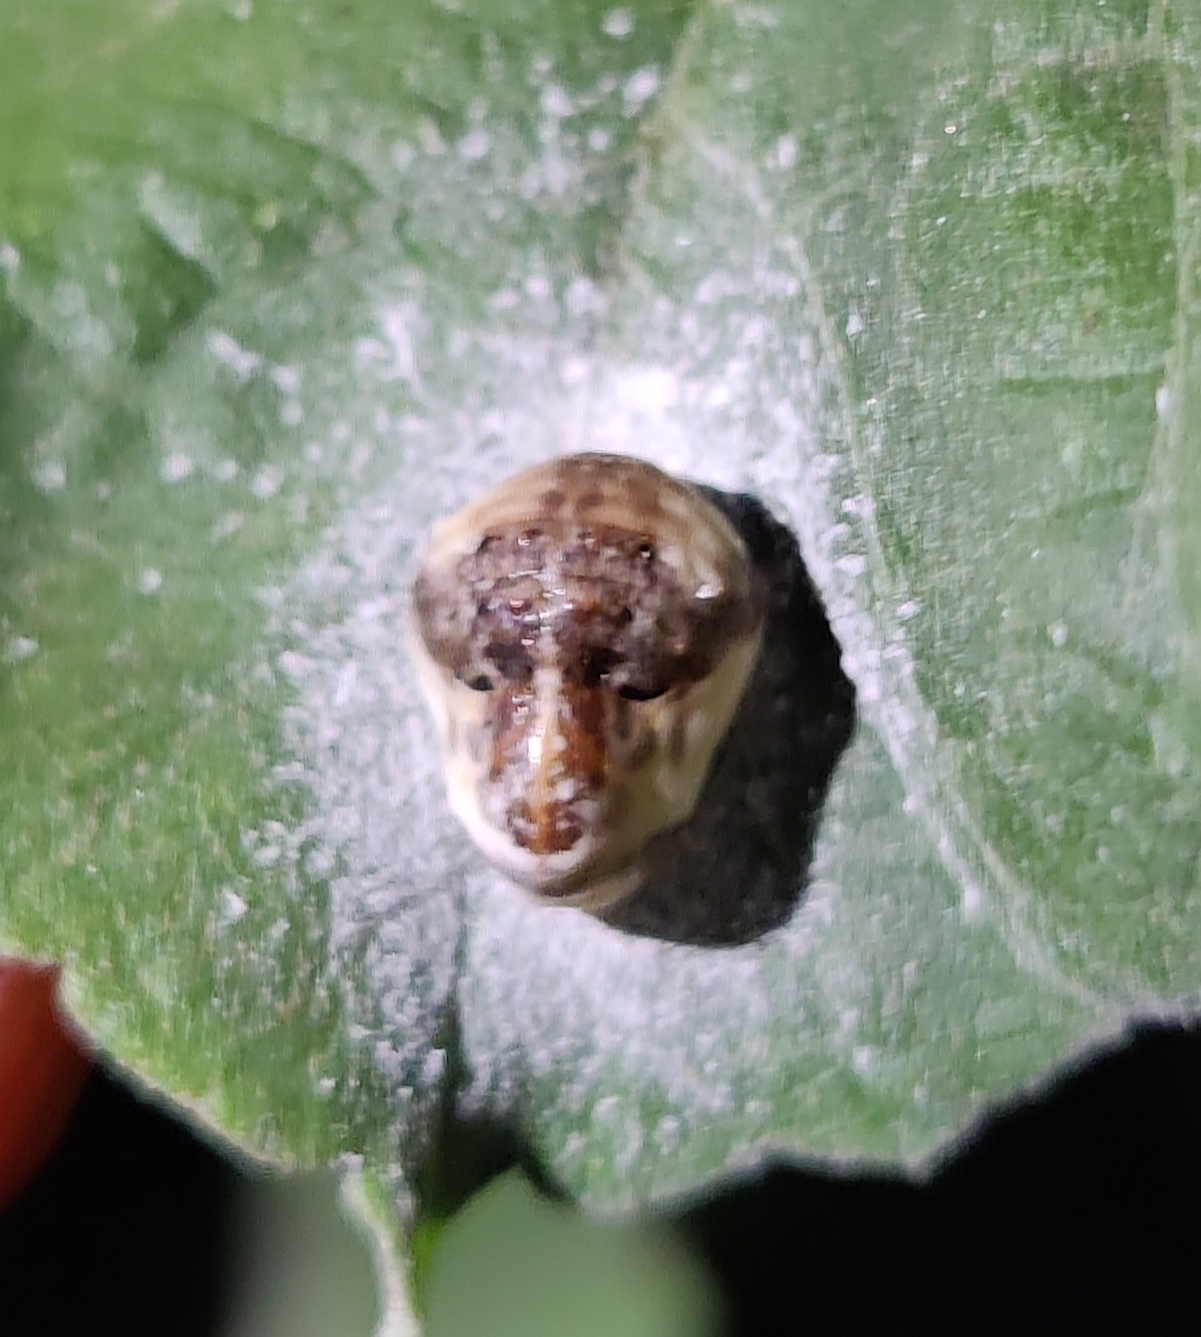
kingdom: Animalia
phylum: Arthropoda
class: Insecta
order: Lepidoptera
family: Lycaenidae
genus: Spalgis
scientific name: Spalgis epius
